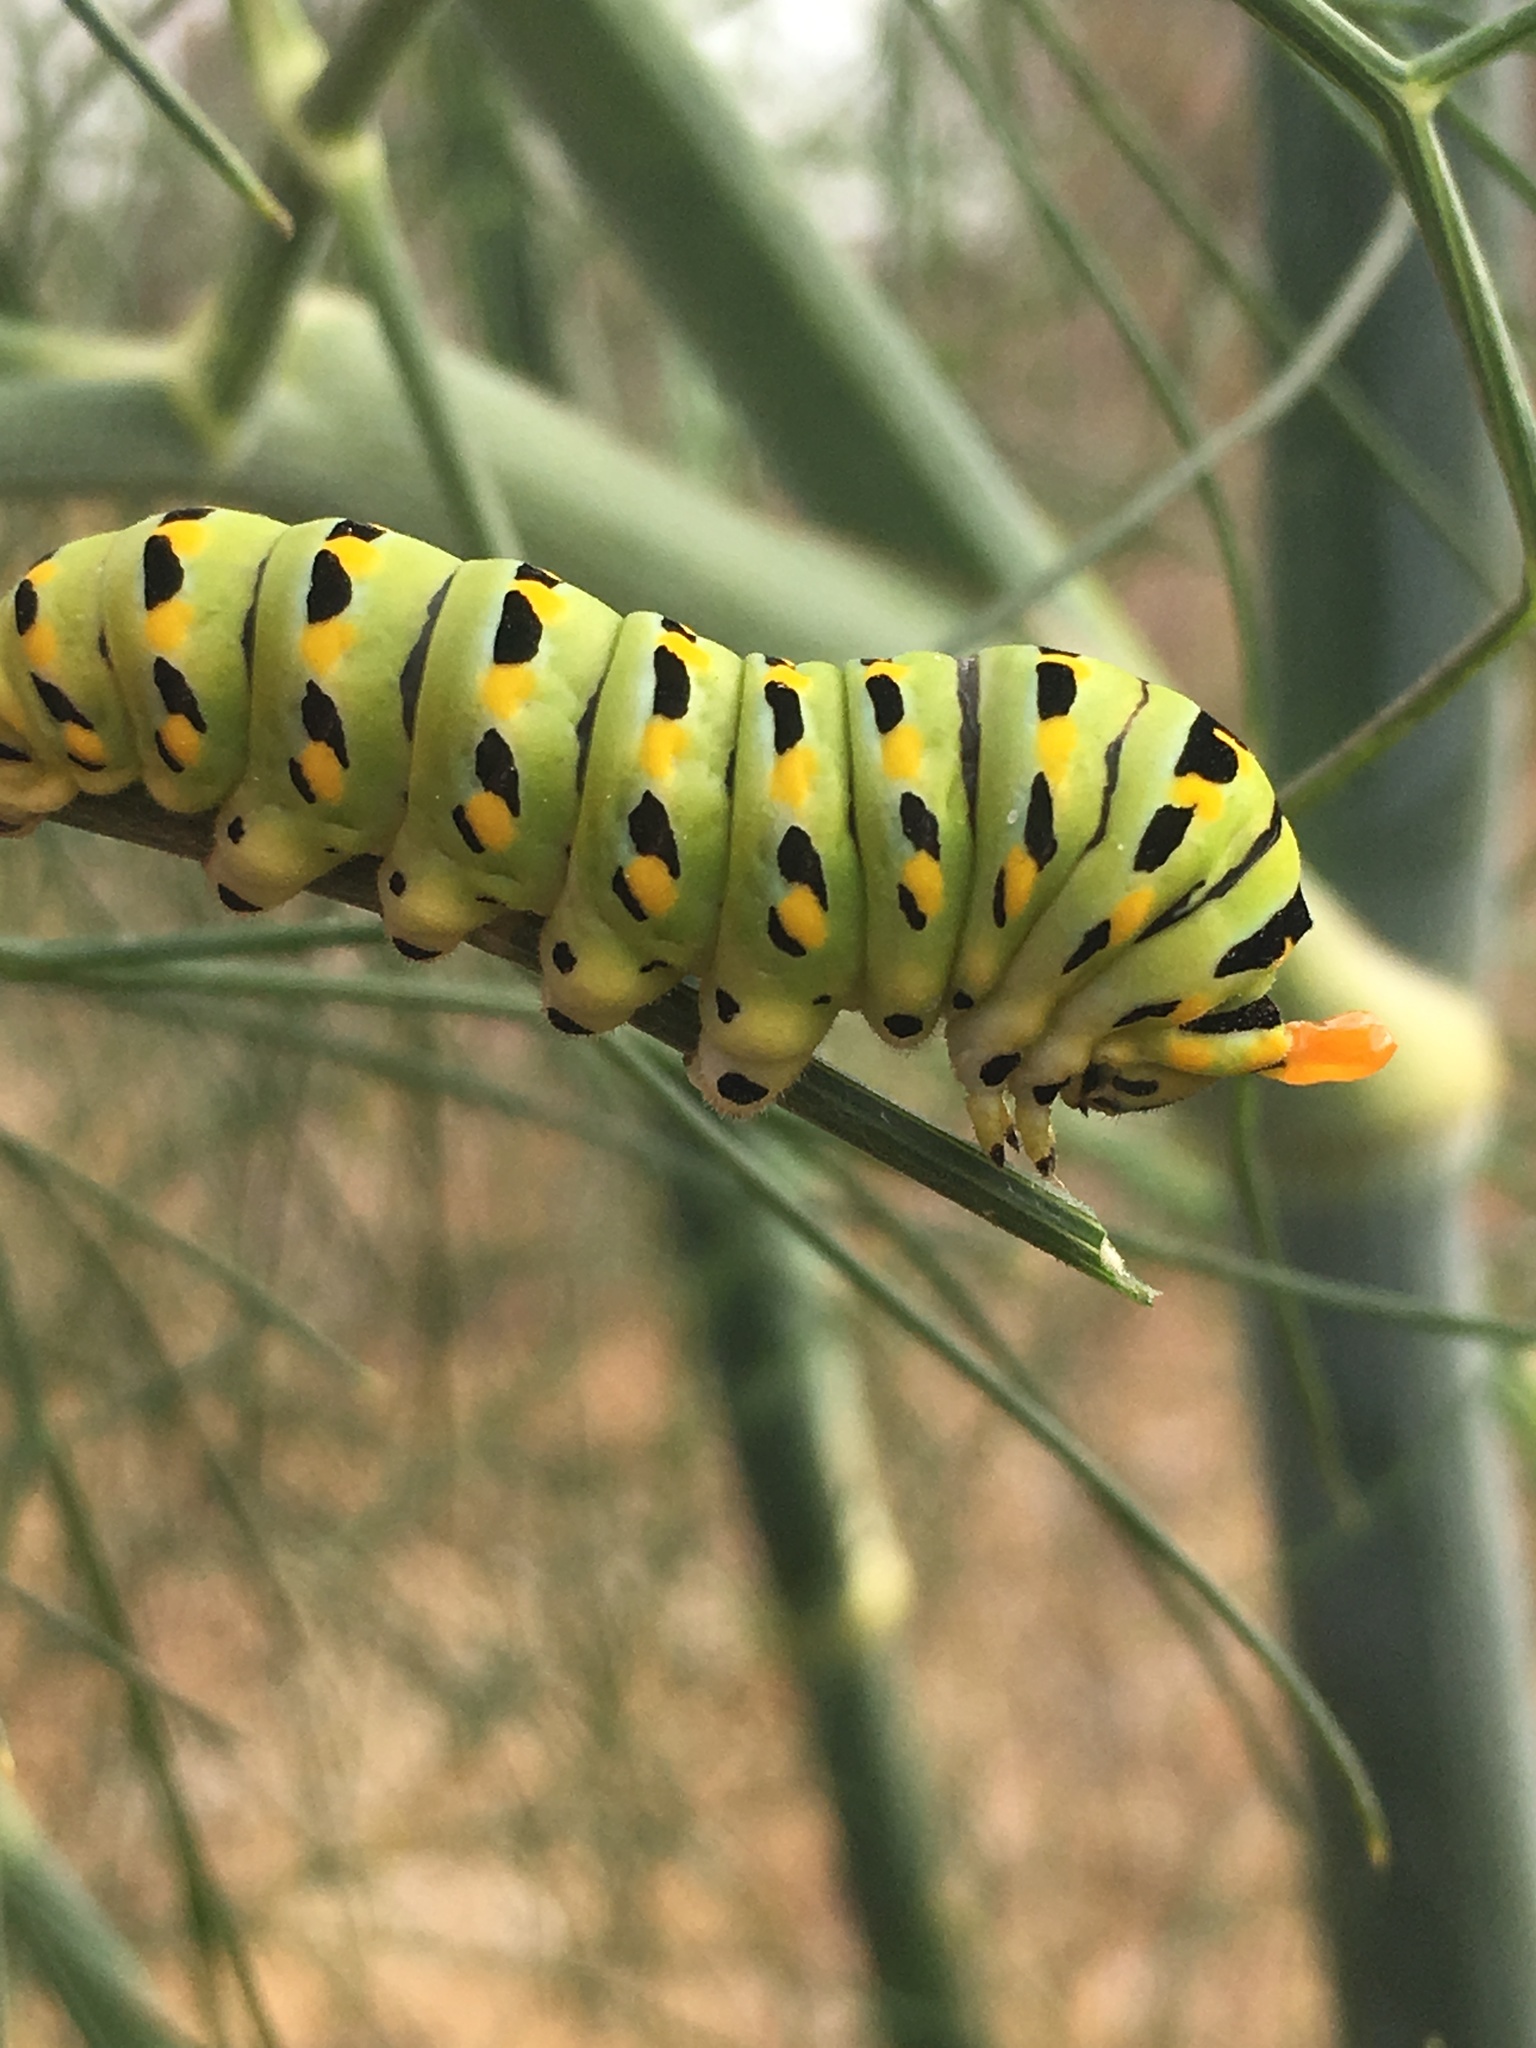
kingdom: Animalia
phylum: Arthropoda
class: Insecta
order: Lepidoptera
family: Papilionidae
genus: Papilio
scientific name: Papilio zelicaon
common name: Anise swallowtail
